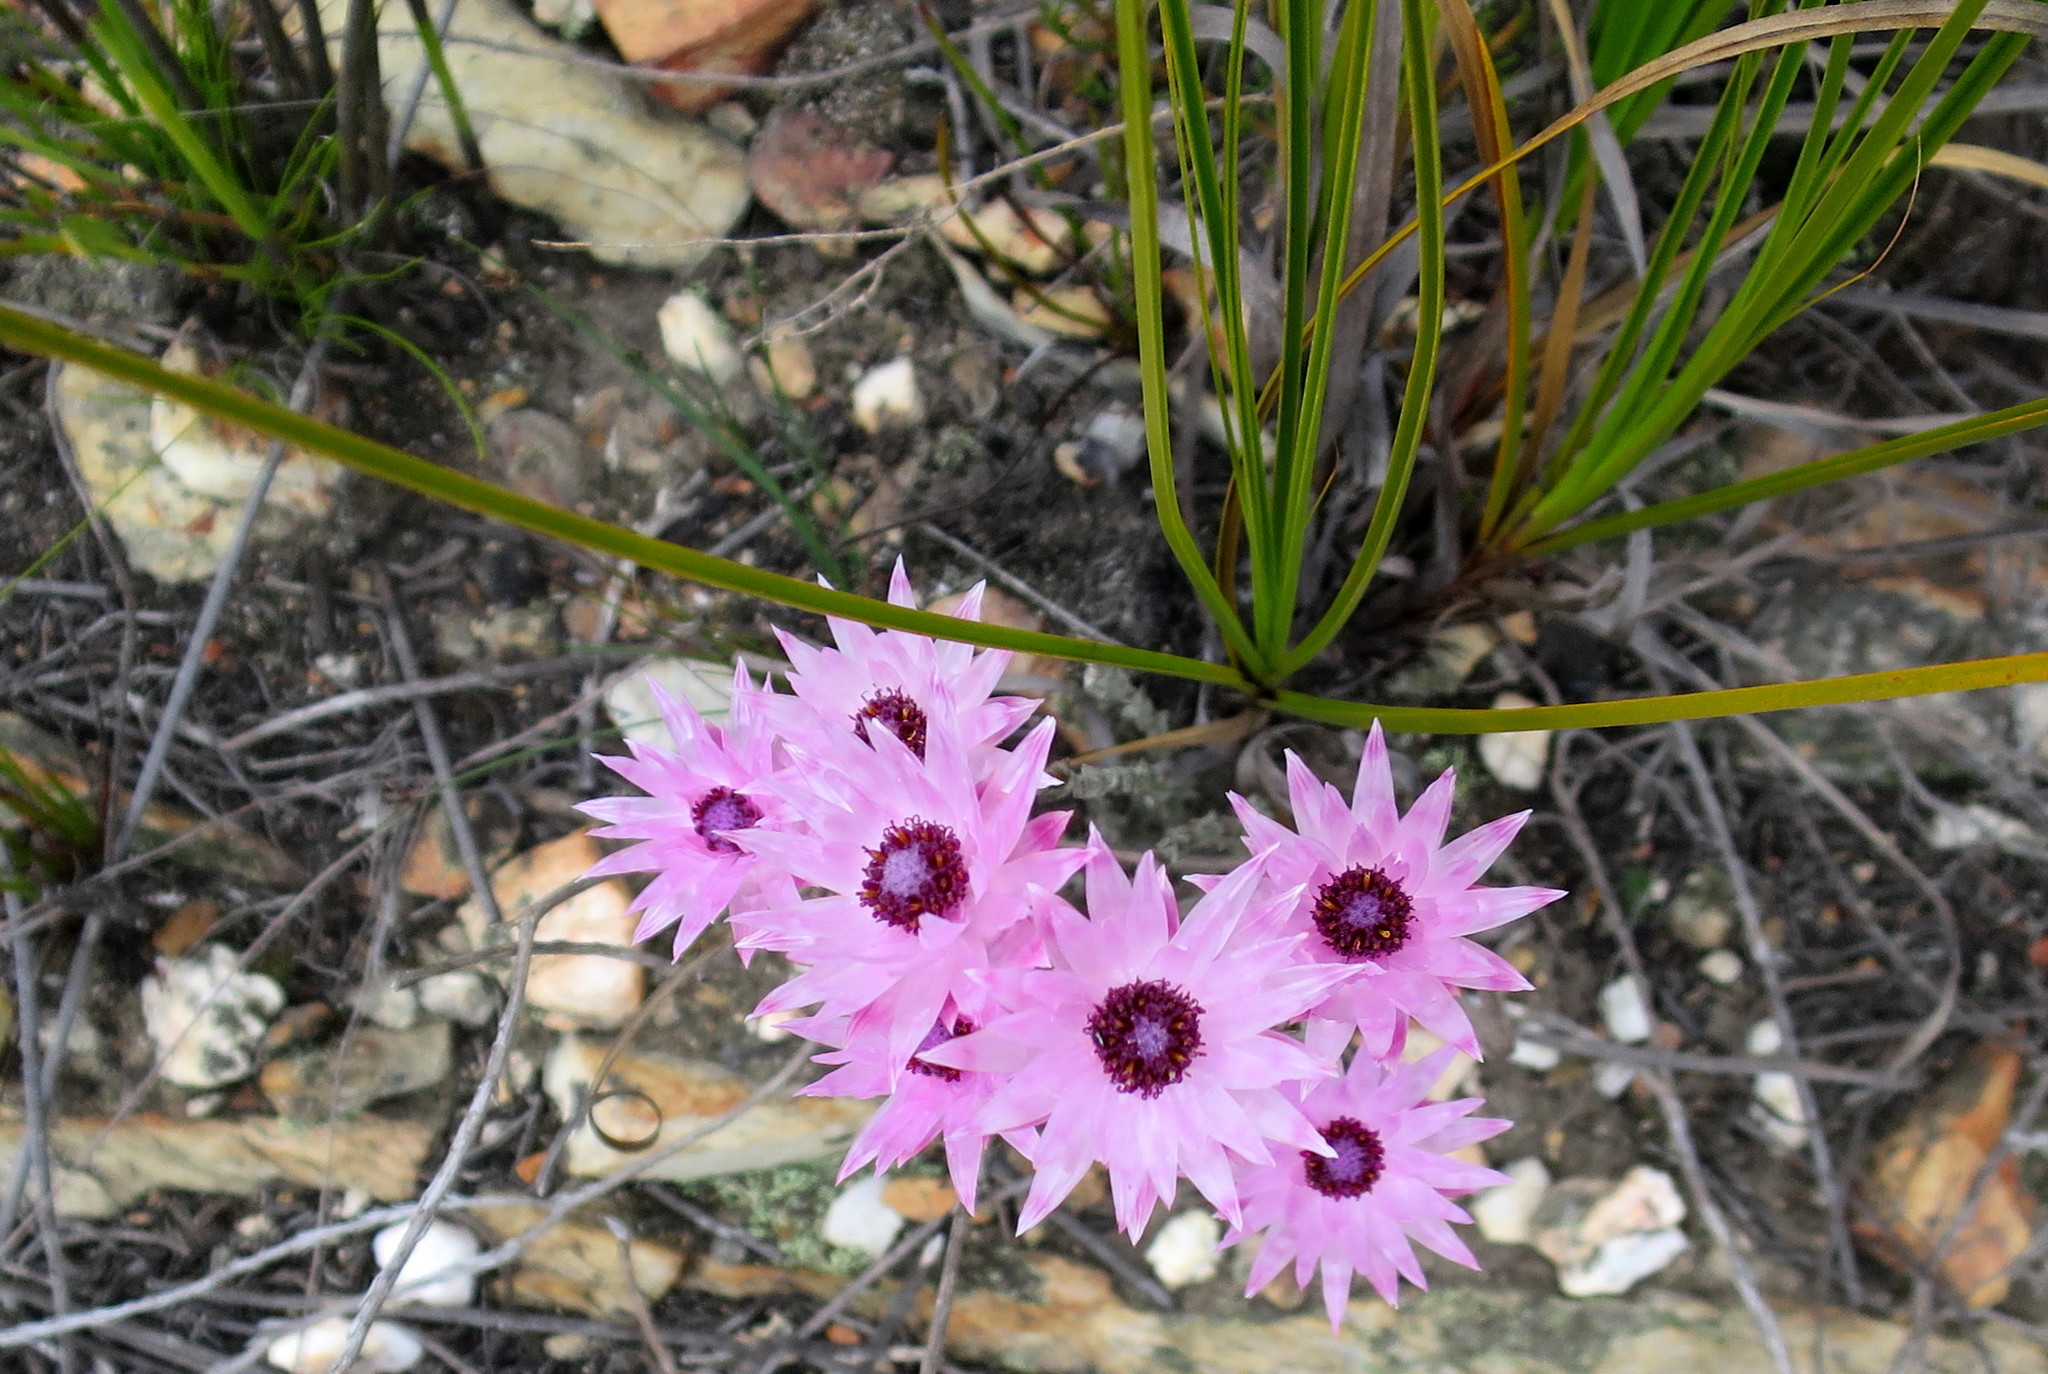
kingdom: Plantae
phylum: Tracheophyta
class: Magnoliopsida
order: Asterales
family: Asteraceae
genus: Syncarpha
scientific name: Syncarpha canescens
